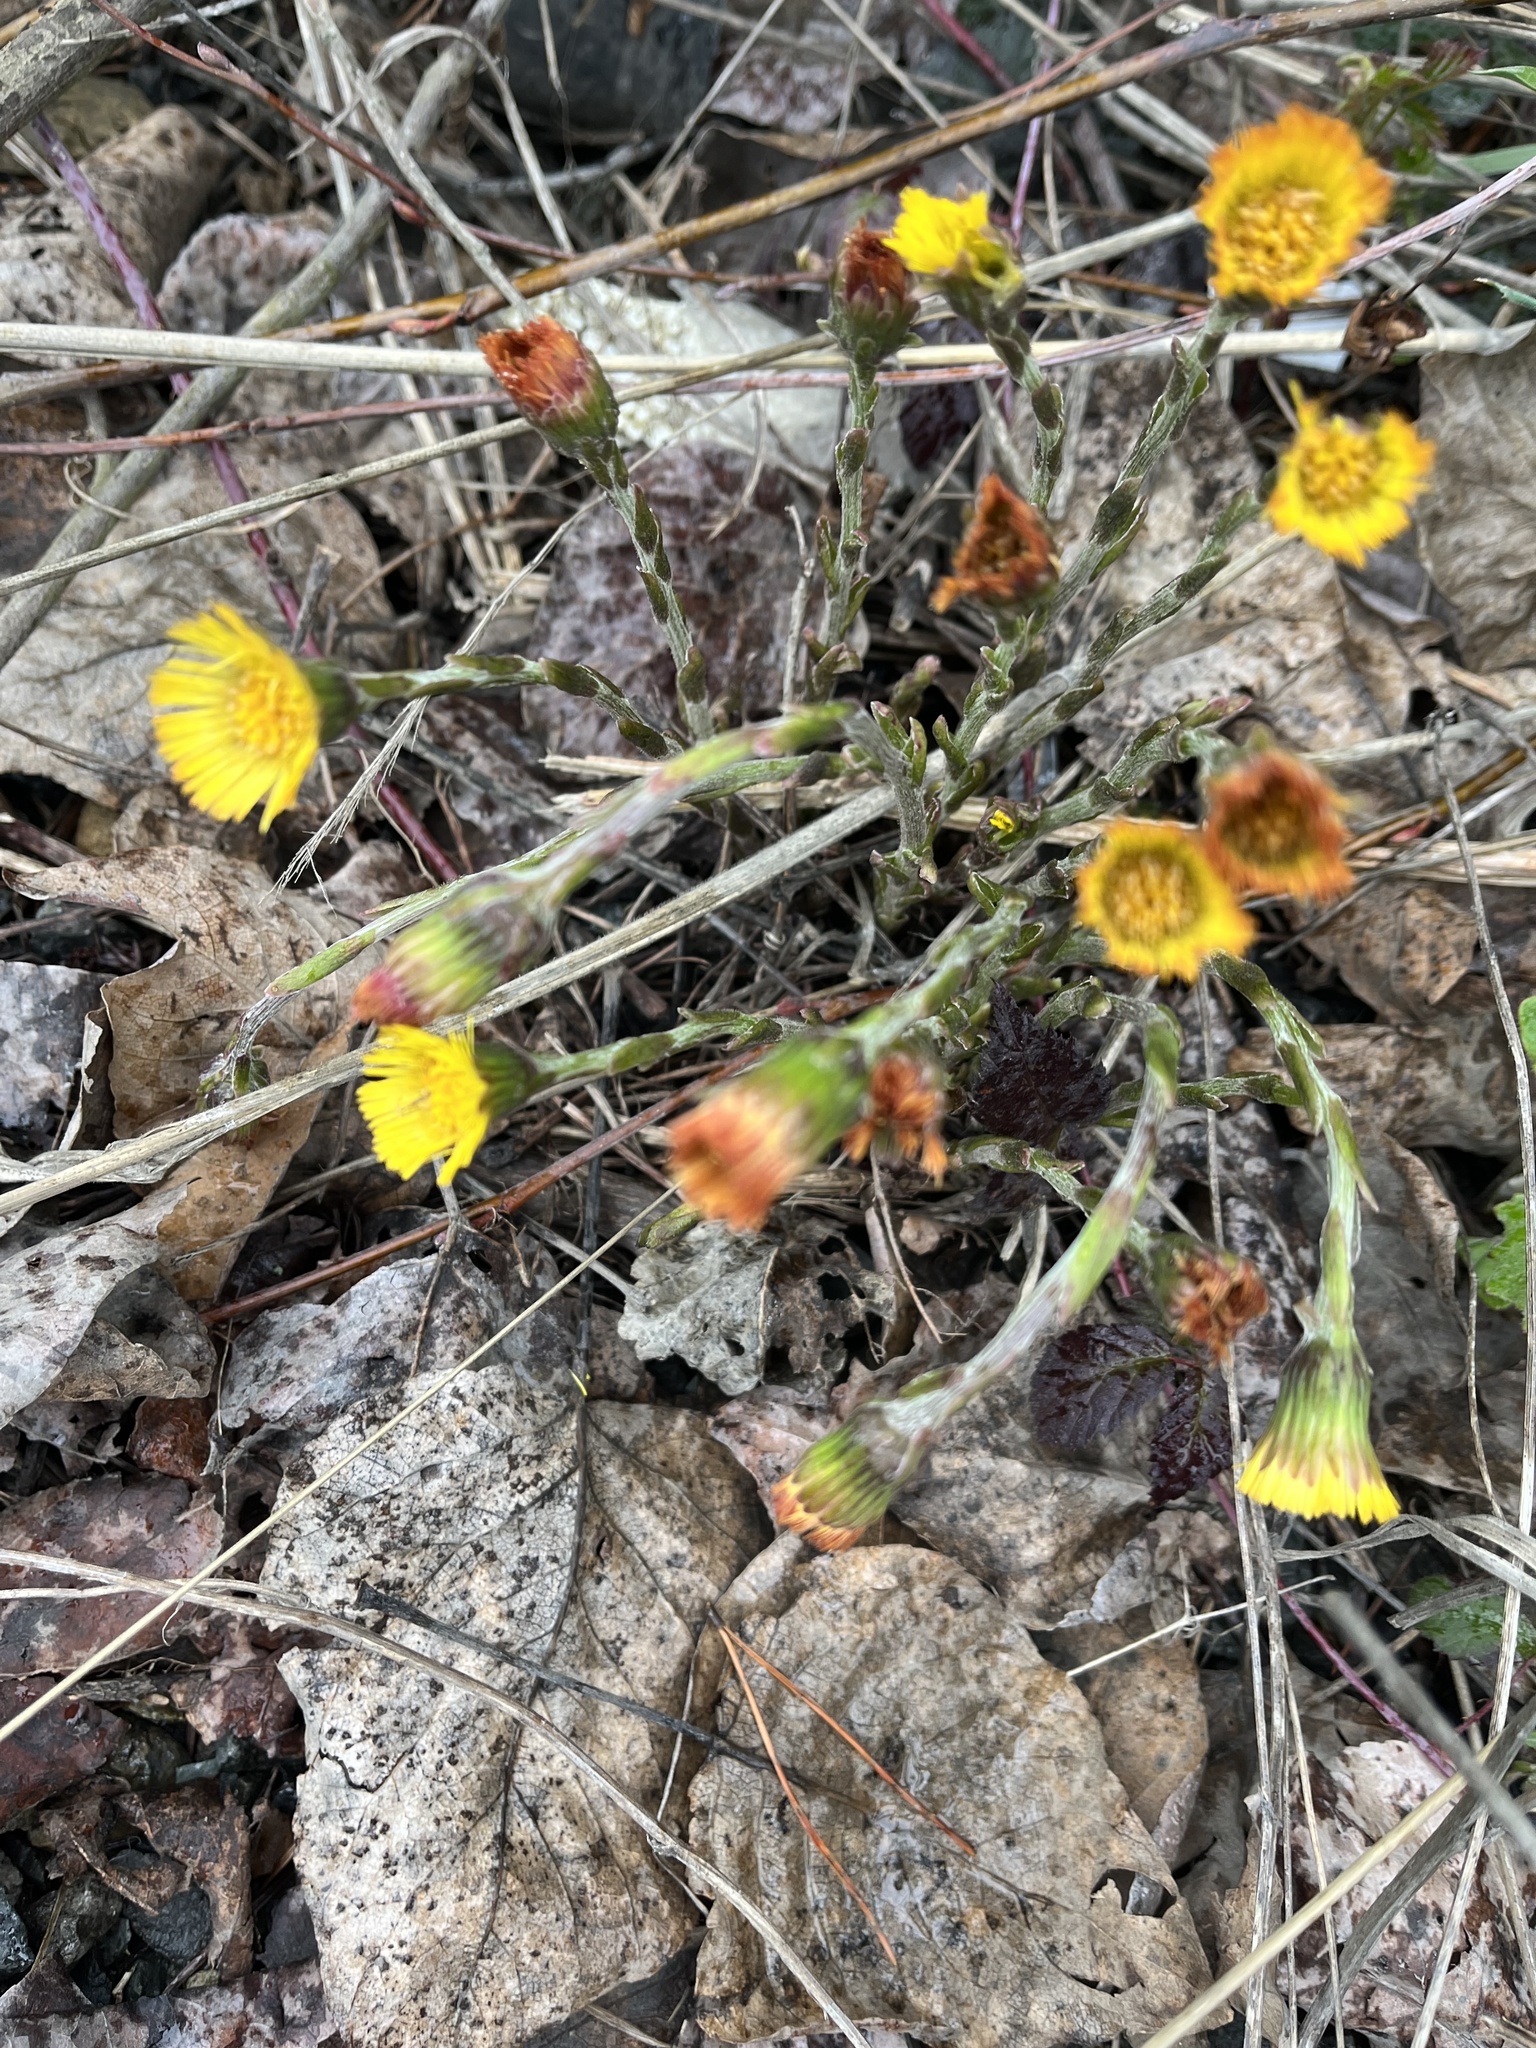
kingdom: Plantae
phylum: Tracheophyta
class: Magnoliopsida
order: Asterales
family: Asteraceae
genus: Tussilago
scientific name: Tussilago farfara
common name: Coltsfoot
